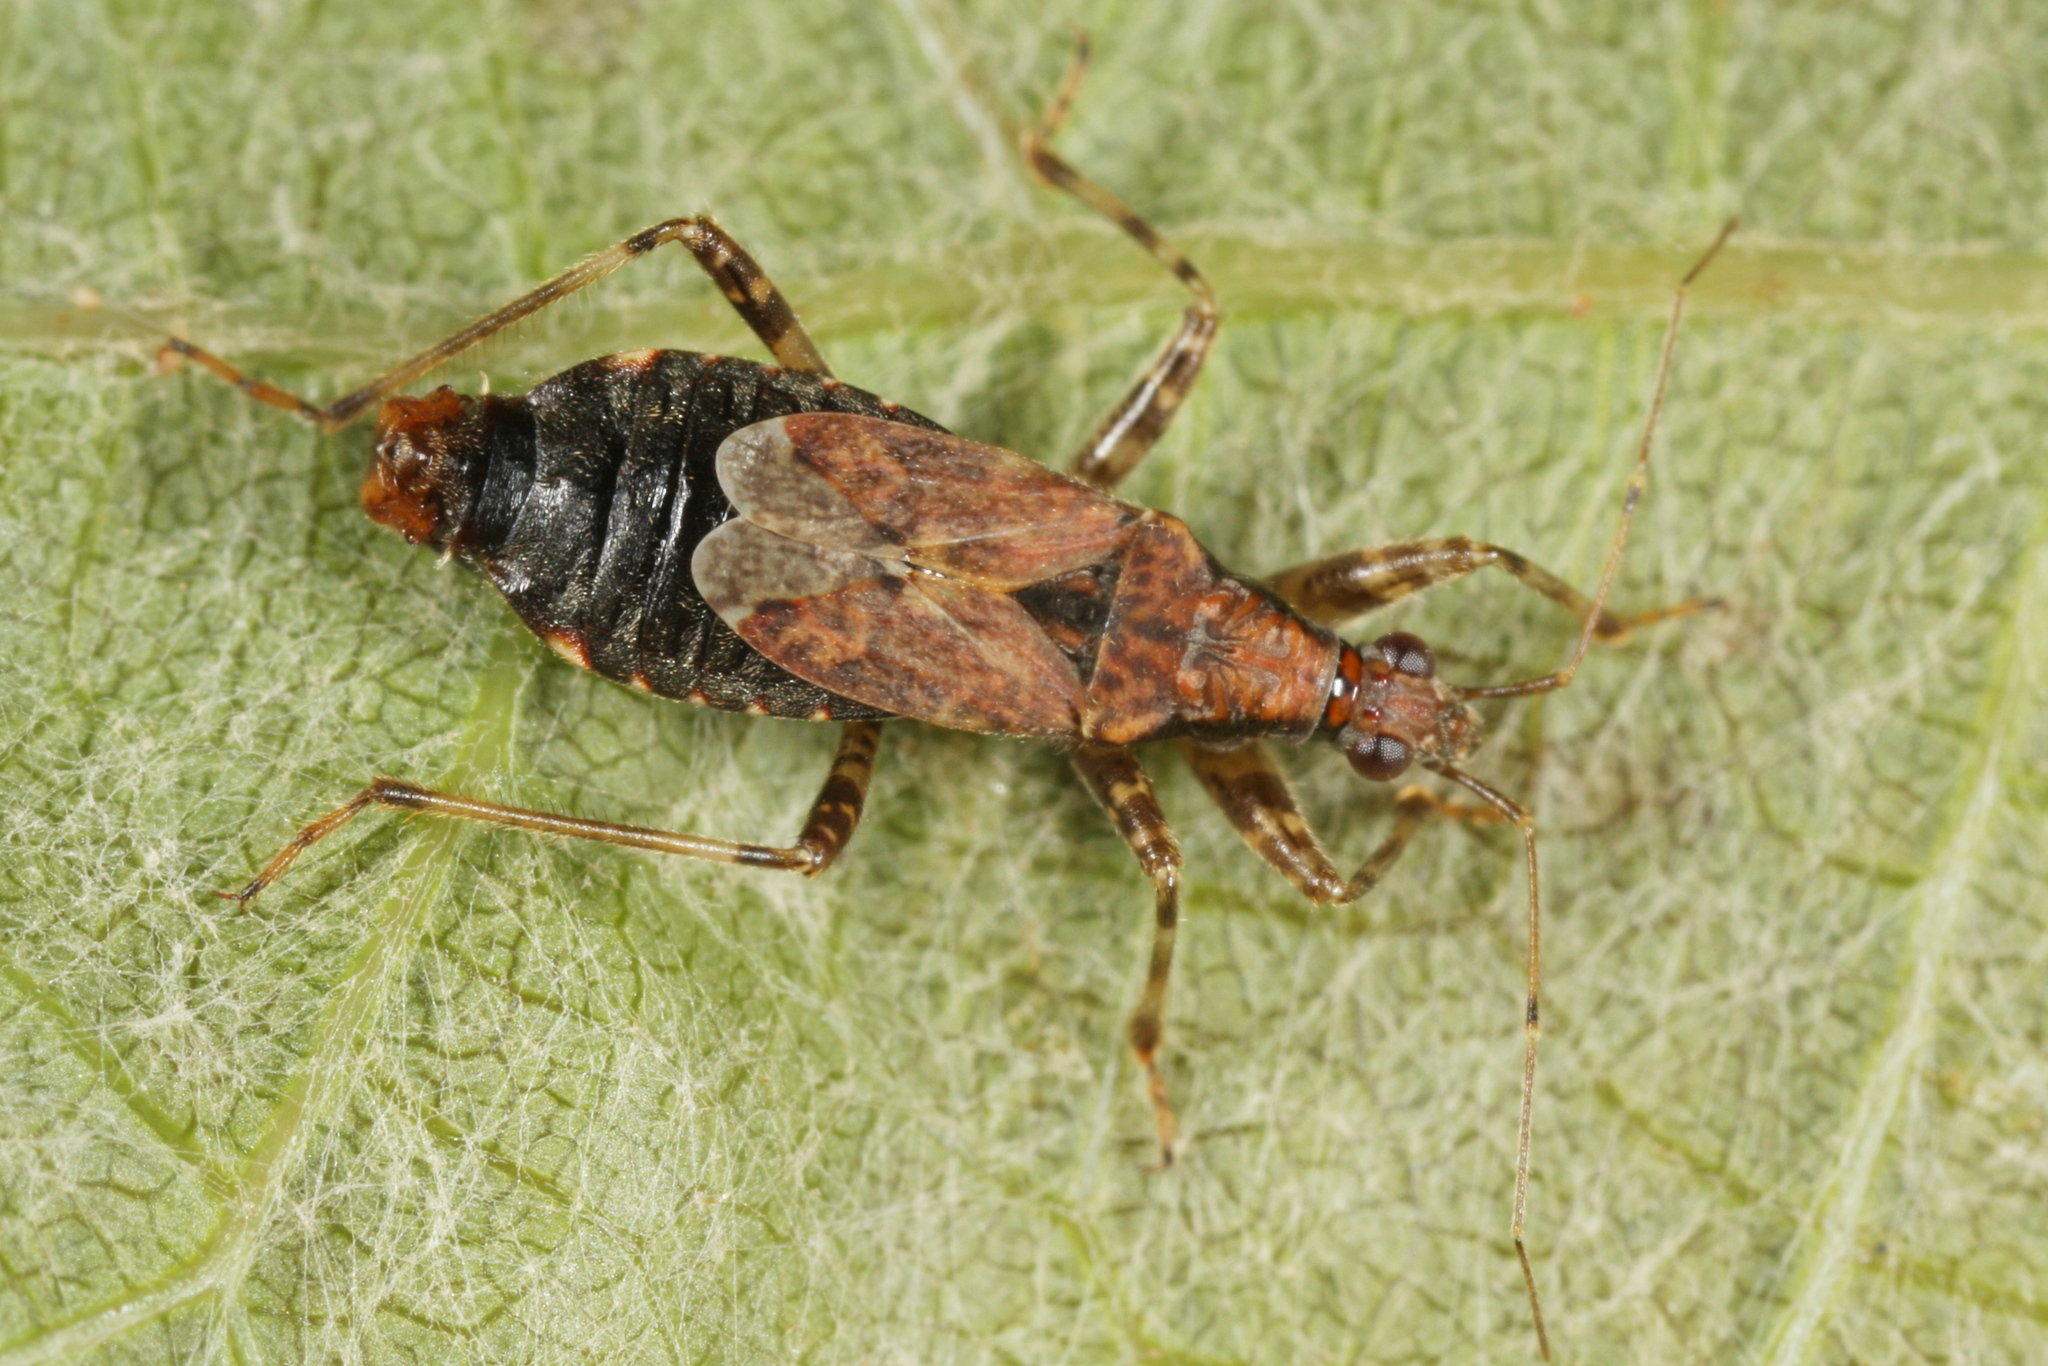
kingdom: Animalia
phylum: Arthropoda
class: Insecta
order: Hemiptera
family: Nabidae
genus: Himacerus
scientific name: Himacerus mirmicoides
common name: Ant damsel bug
